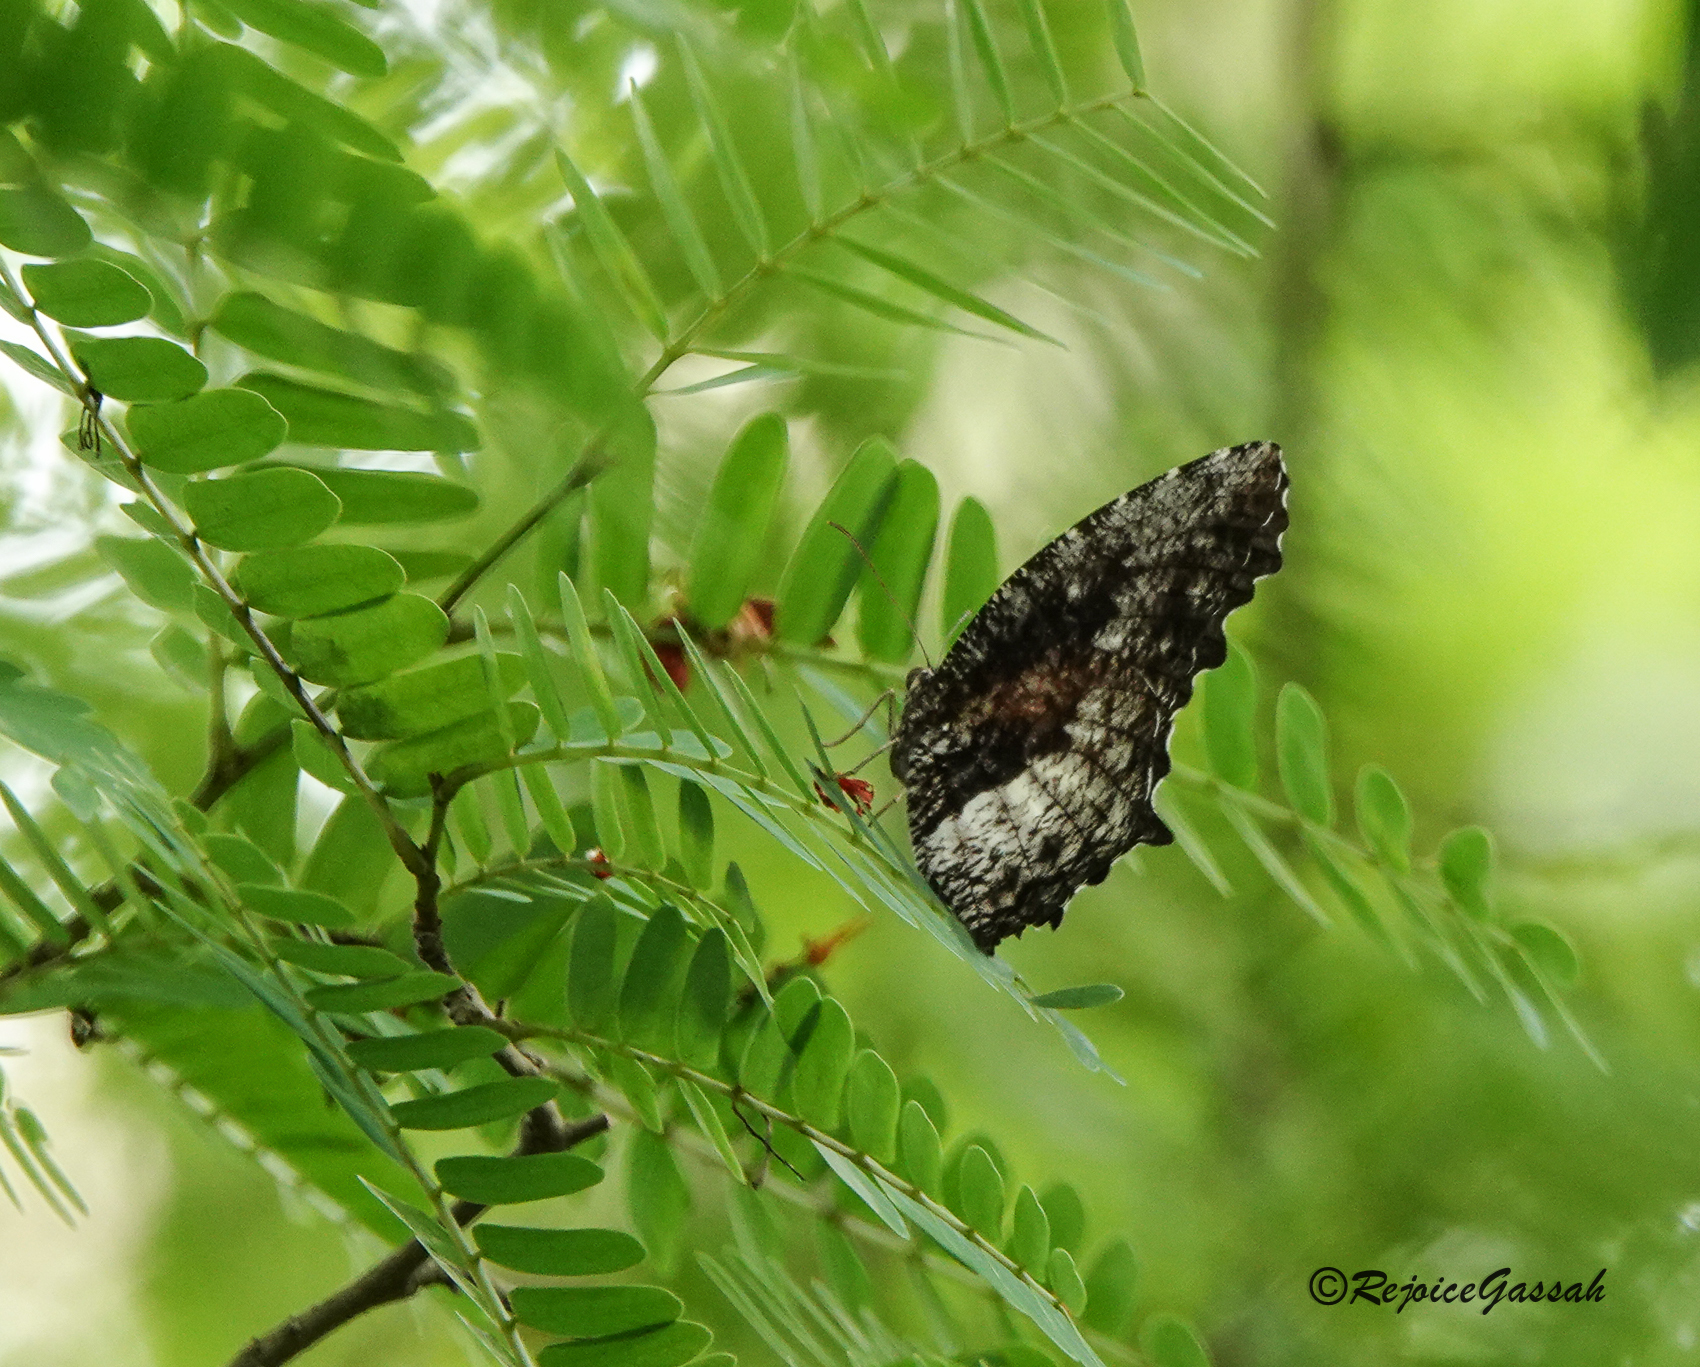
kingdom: Animalia
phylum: Arthropoda
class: Insecta
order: Lepidoptera
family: Nymphalidae
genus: Elymnias
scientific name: Elymnias nesaea
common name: Tiger palmfly
